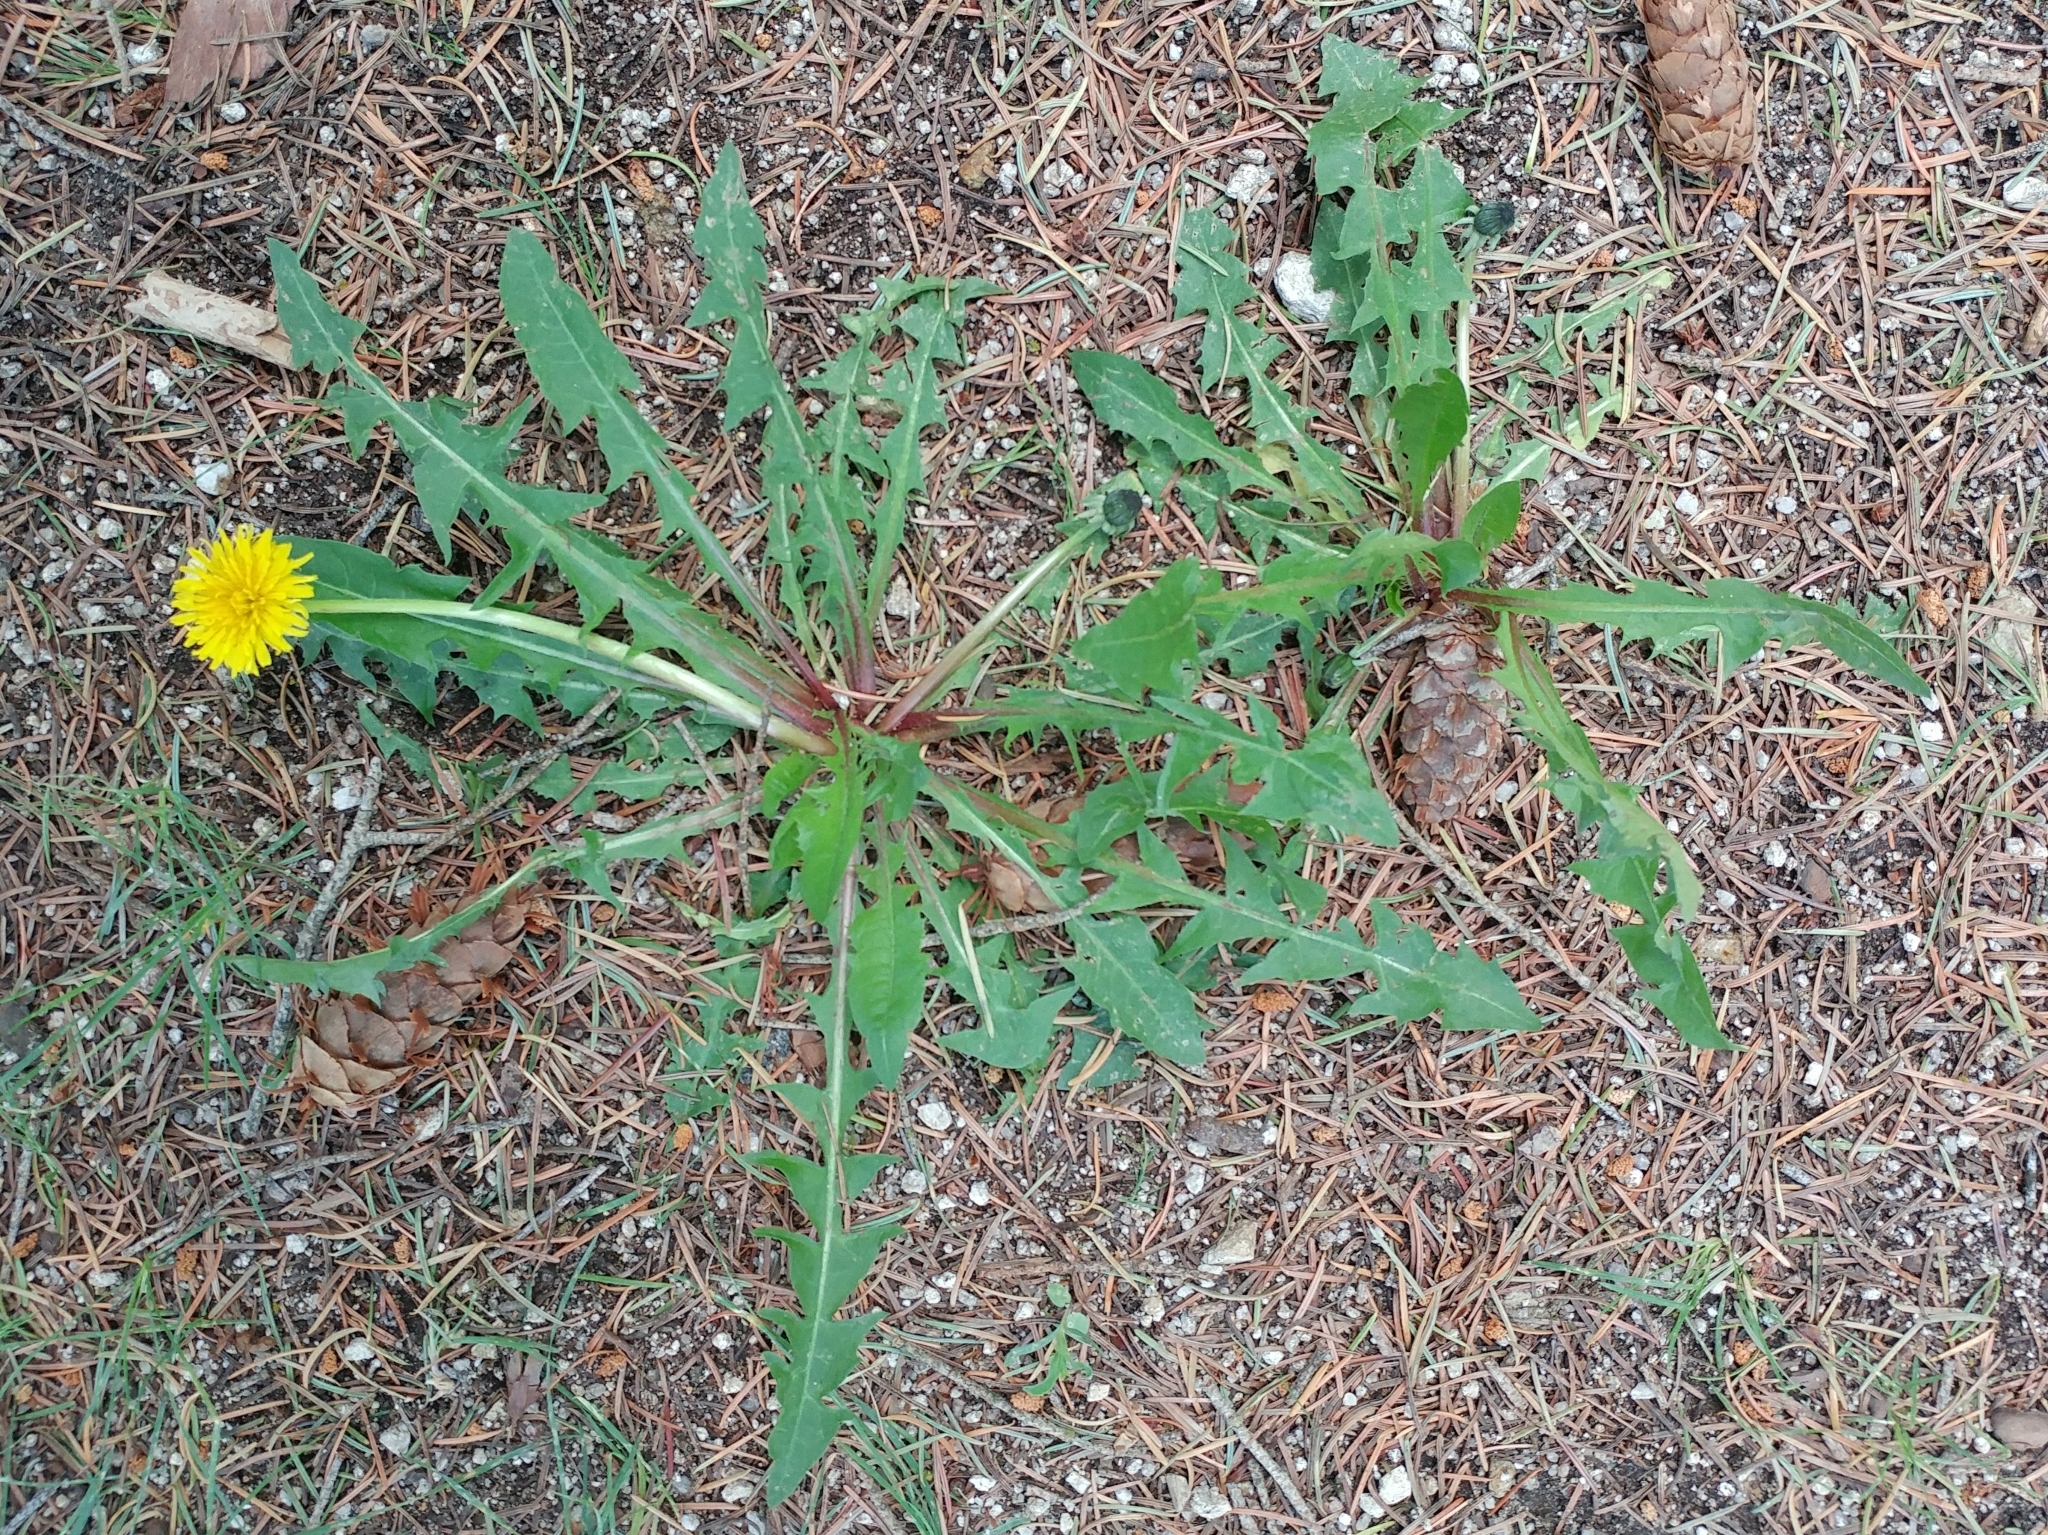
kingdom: Plantae
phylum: Tracheophyta
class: Magnoliopsida
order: Asterales
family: Asteraceae
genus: Taraxacum
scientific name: Taraxacum officinale
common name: Common dandelion
